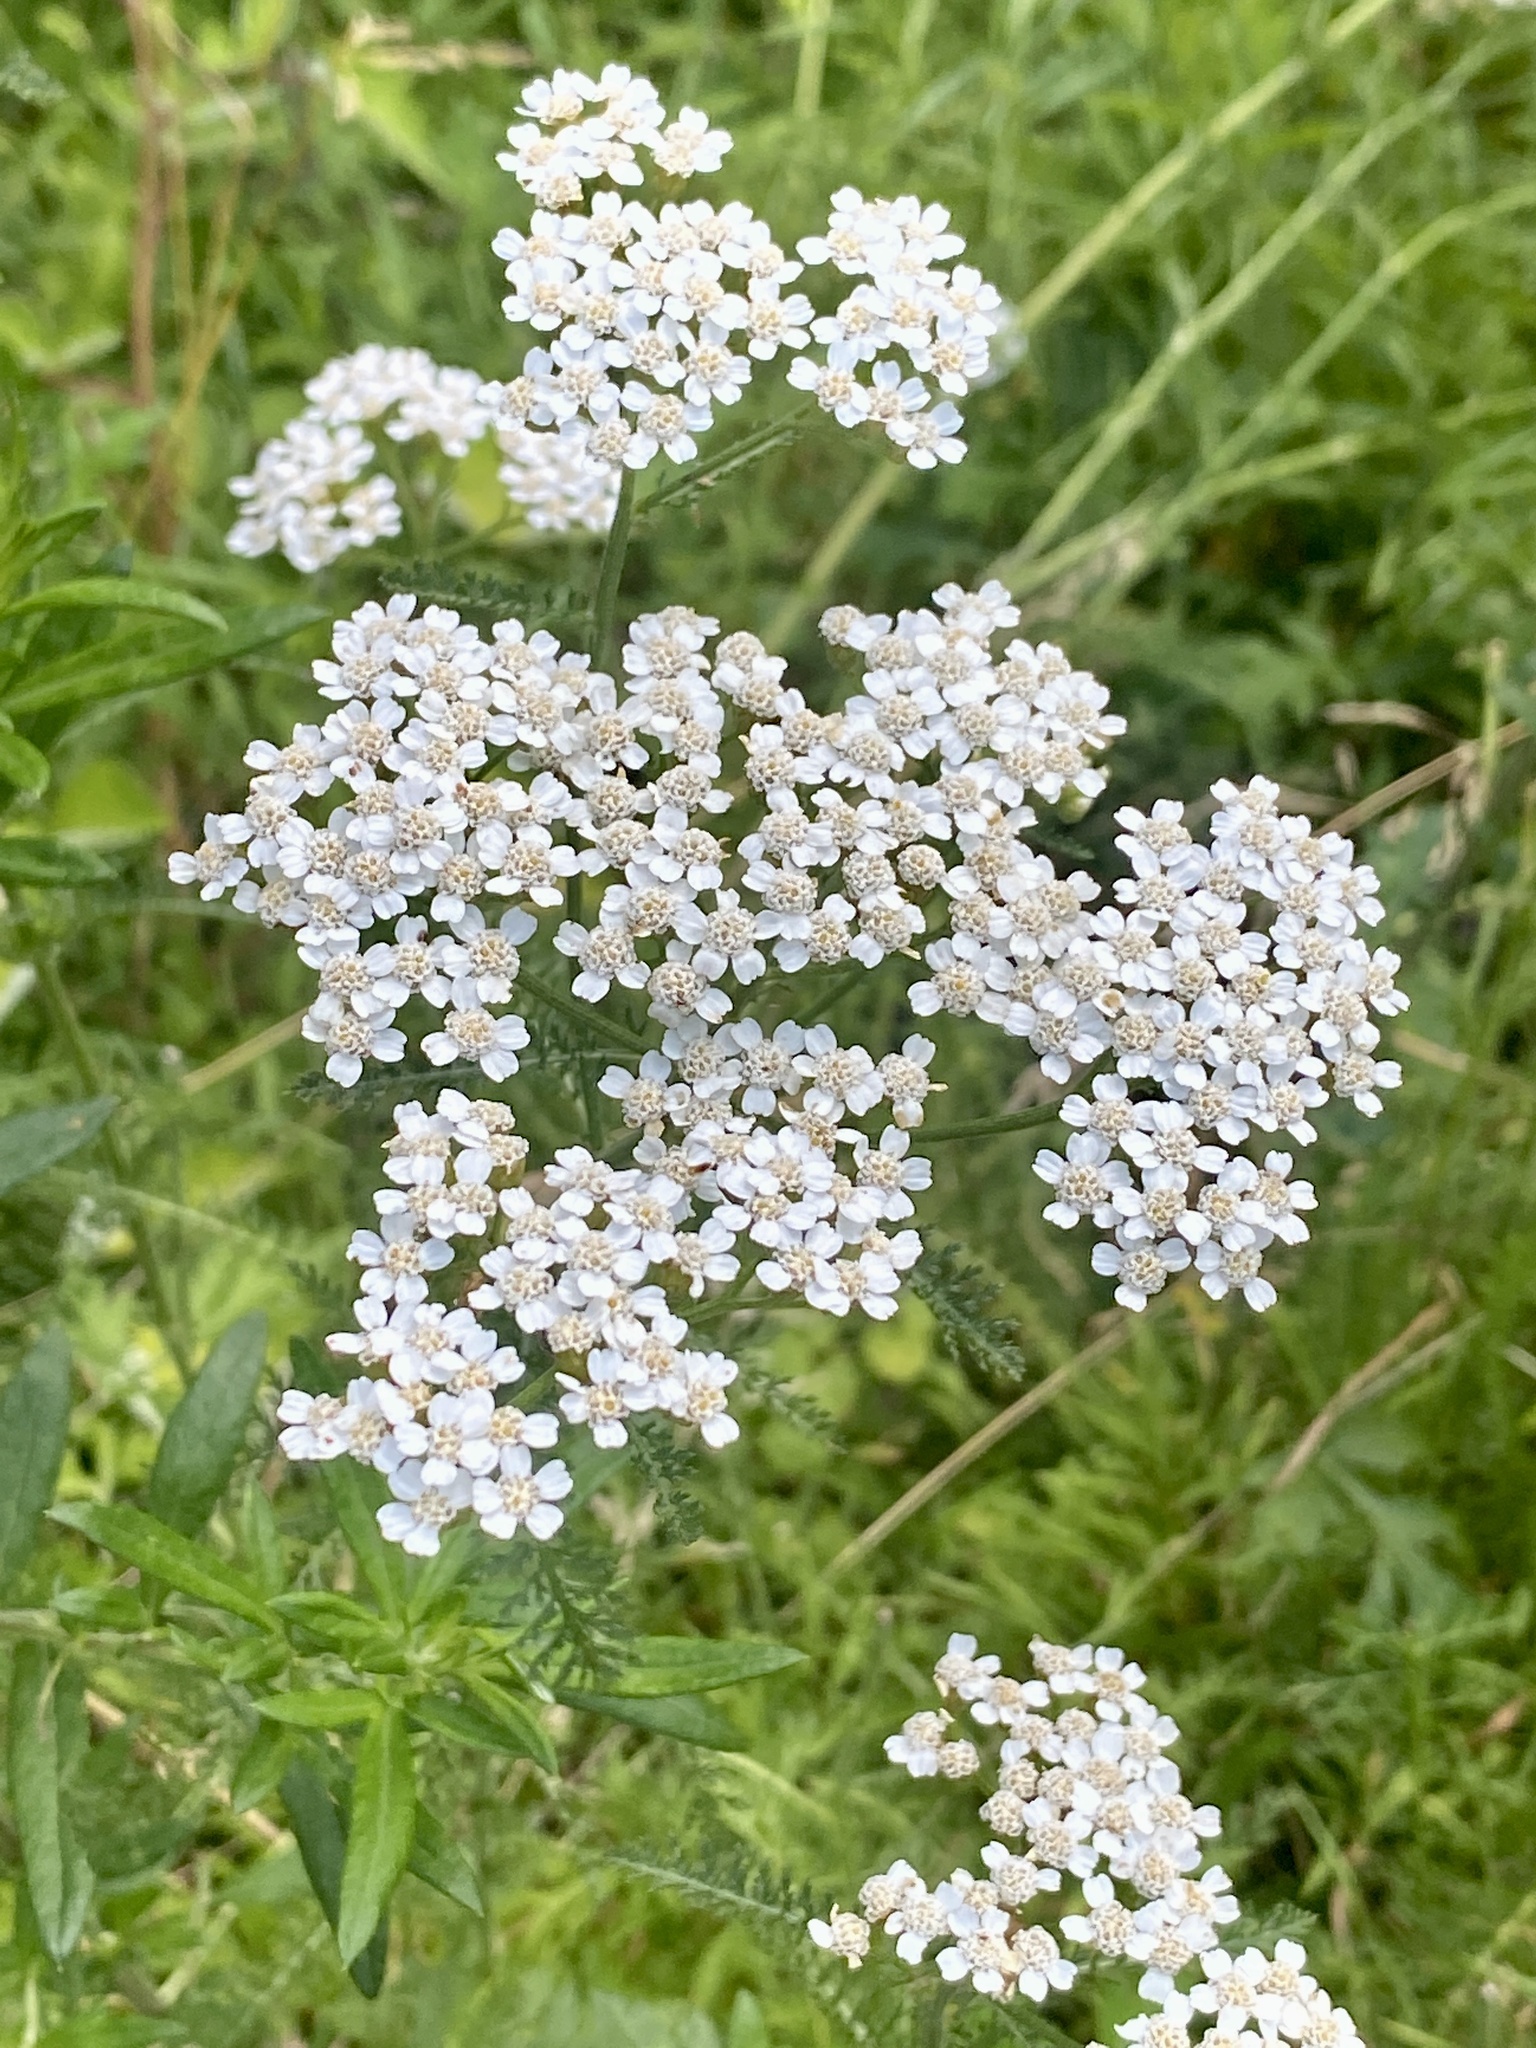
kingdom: Plantae
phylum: Tracheophyta
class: Magnoliopsida
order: Asterales
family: Asteraceae
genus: Achillea
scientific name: Achillea millefolium
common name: Yarrow
